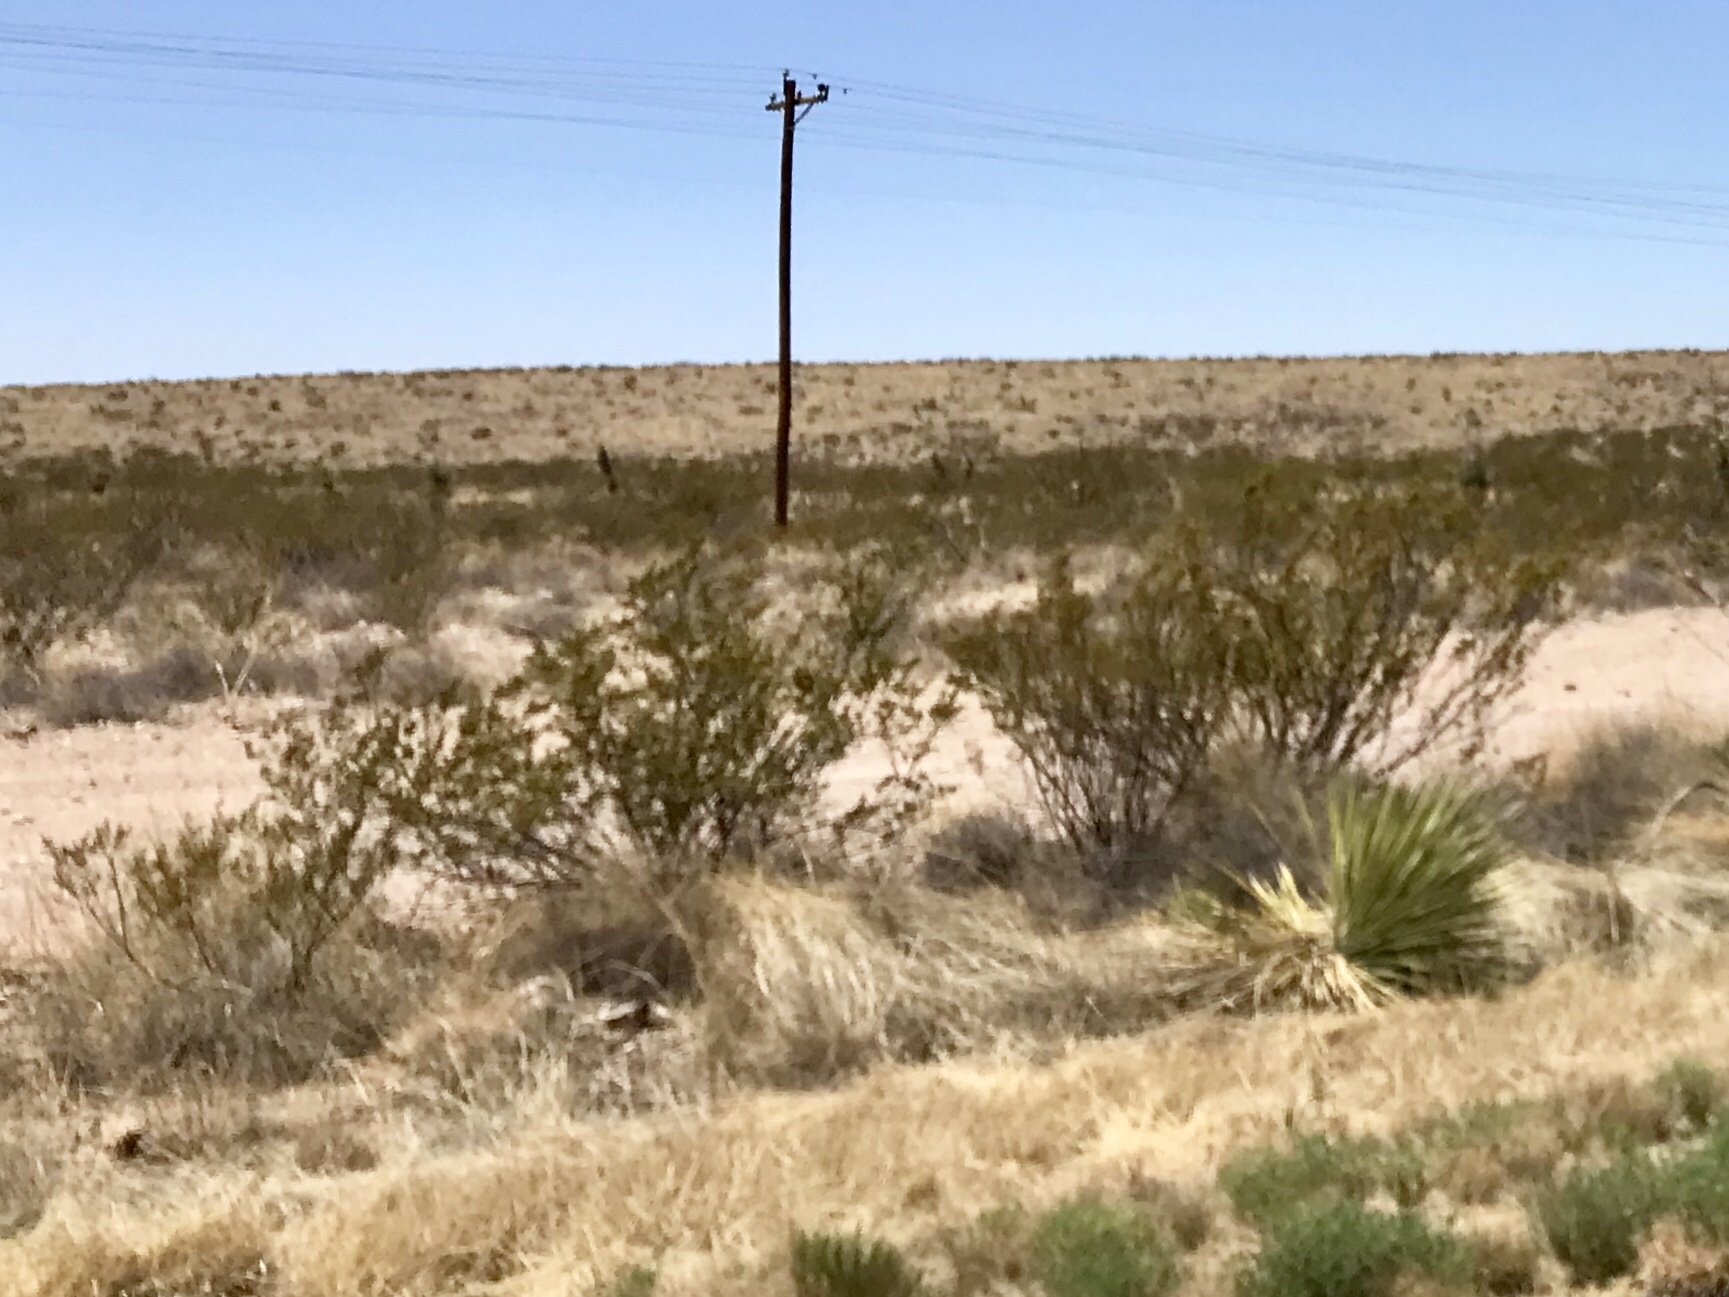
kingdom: Plantae
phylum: Tracheophyta
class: Magnoliopsida
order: Zygophyllales
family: Zygophyllaceae
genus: Larrea
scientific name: Larrea tridentata
